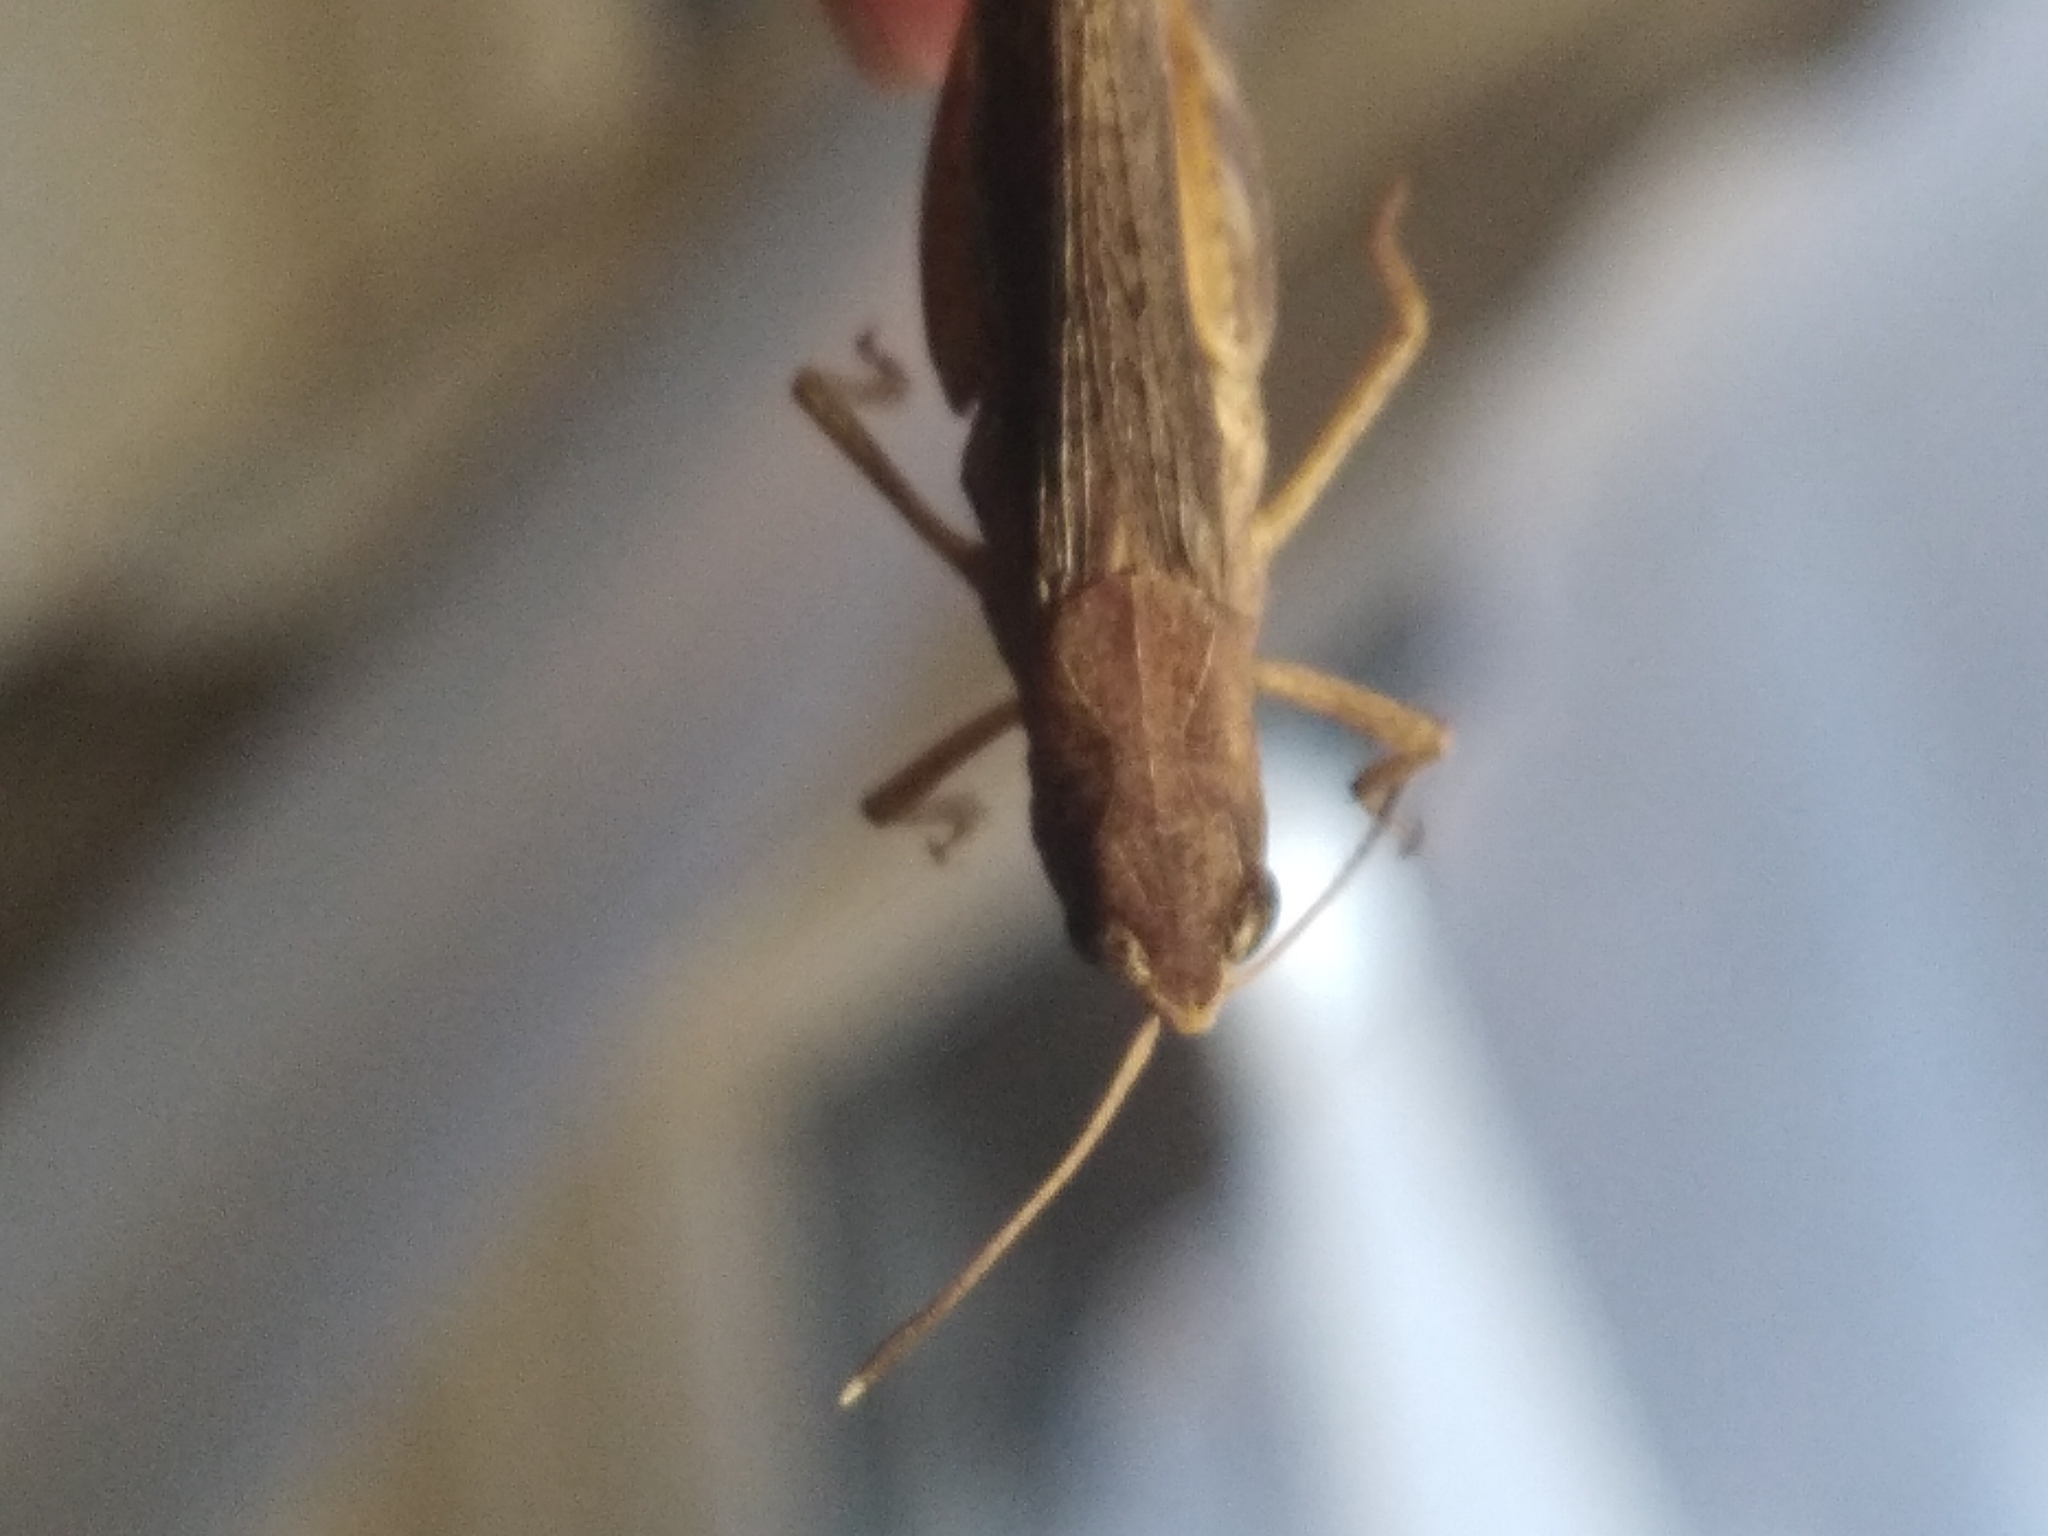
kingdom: Animalia
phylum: Arthropoda
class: Insecta
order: Orthoptera
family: Acrididae
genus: Gomphocerippus
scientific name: Gomphocerippus rufus
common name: Rufous grasshopper
